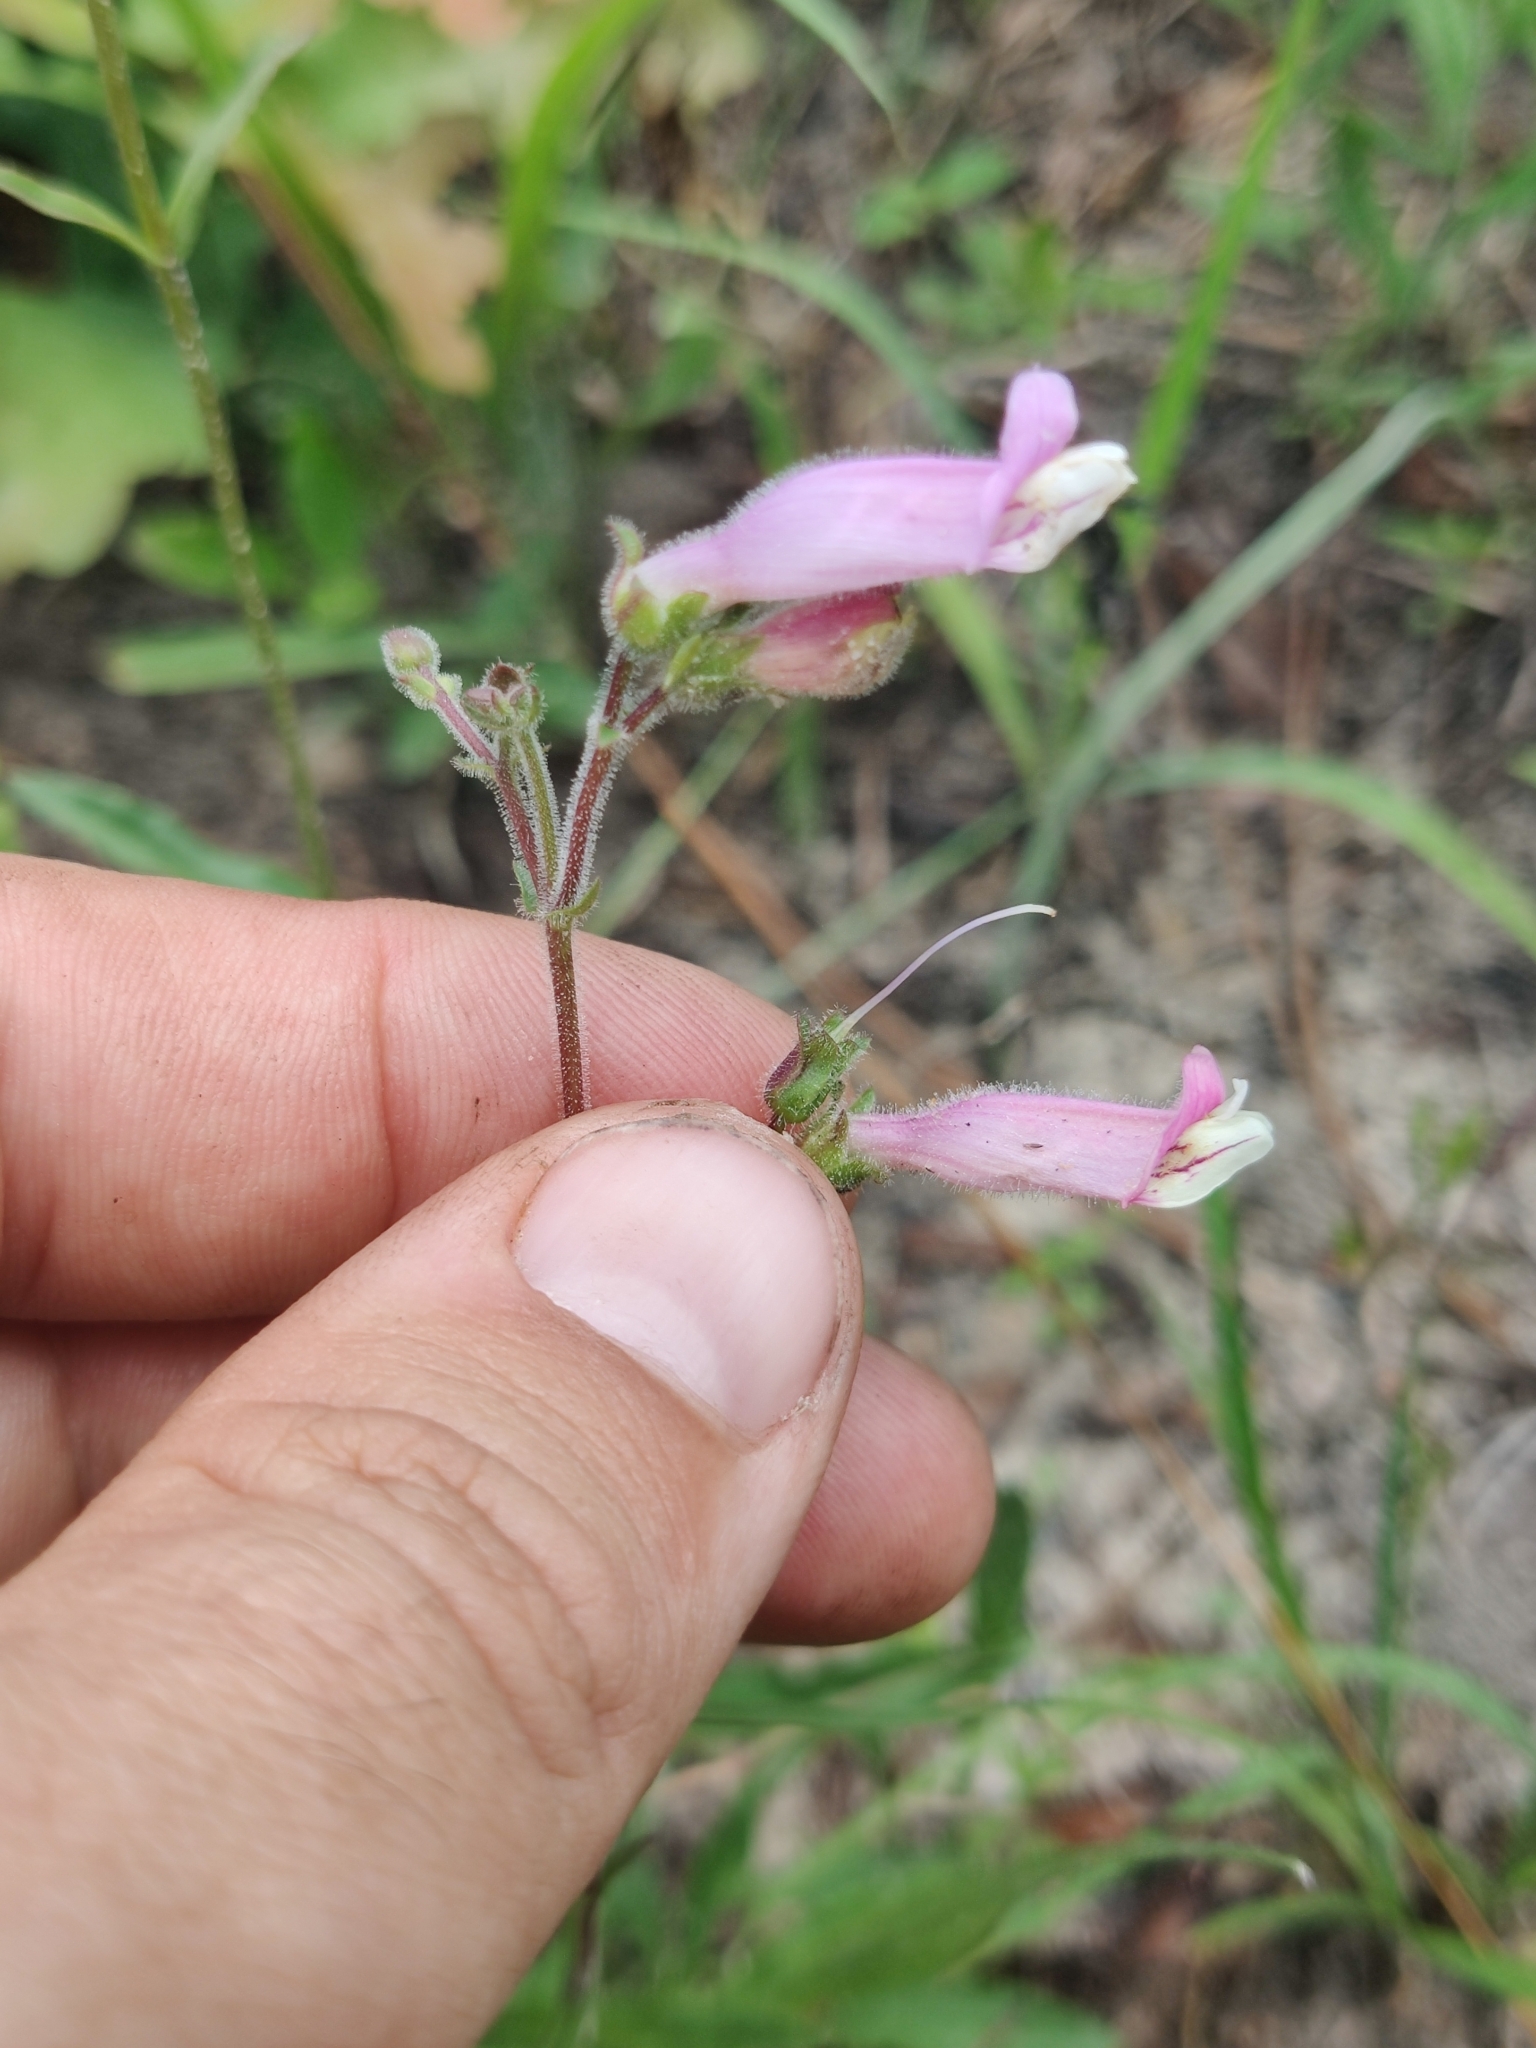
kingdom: Plantae
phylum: Tracheophyta
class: Magnoliopsida
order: Lamiales
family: Plantaginaceae
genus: Penstemon
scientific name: Penstemon australis
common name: Southeastern beardtongue
